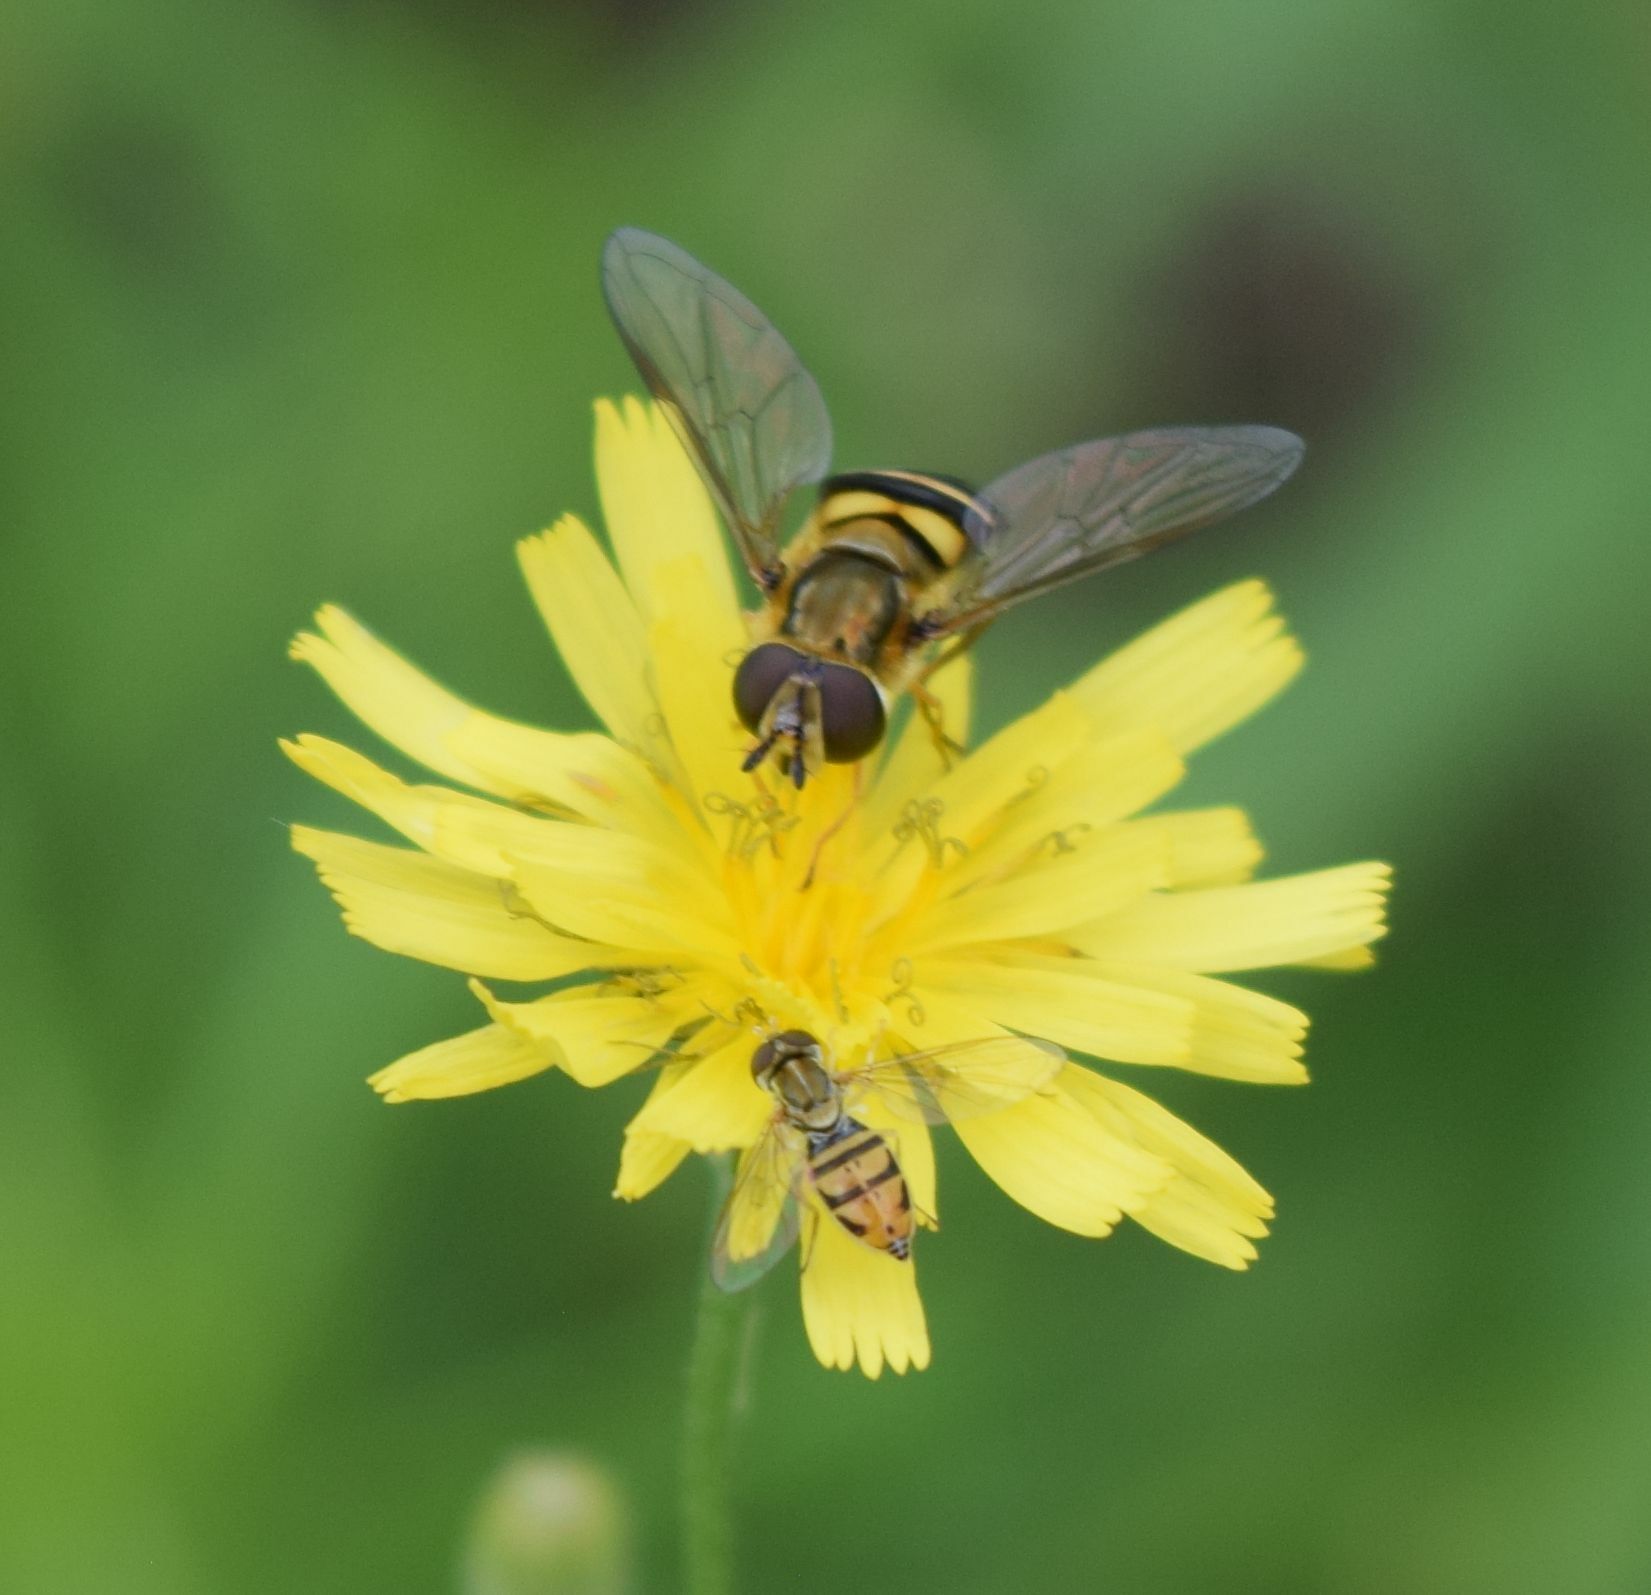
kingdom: Animalia
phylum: Arthropoda
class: Insecta
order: Diptera
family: Syrphidae
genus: Eupeodes
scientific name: Eupeodes
